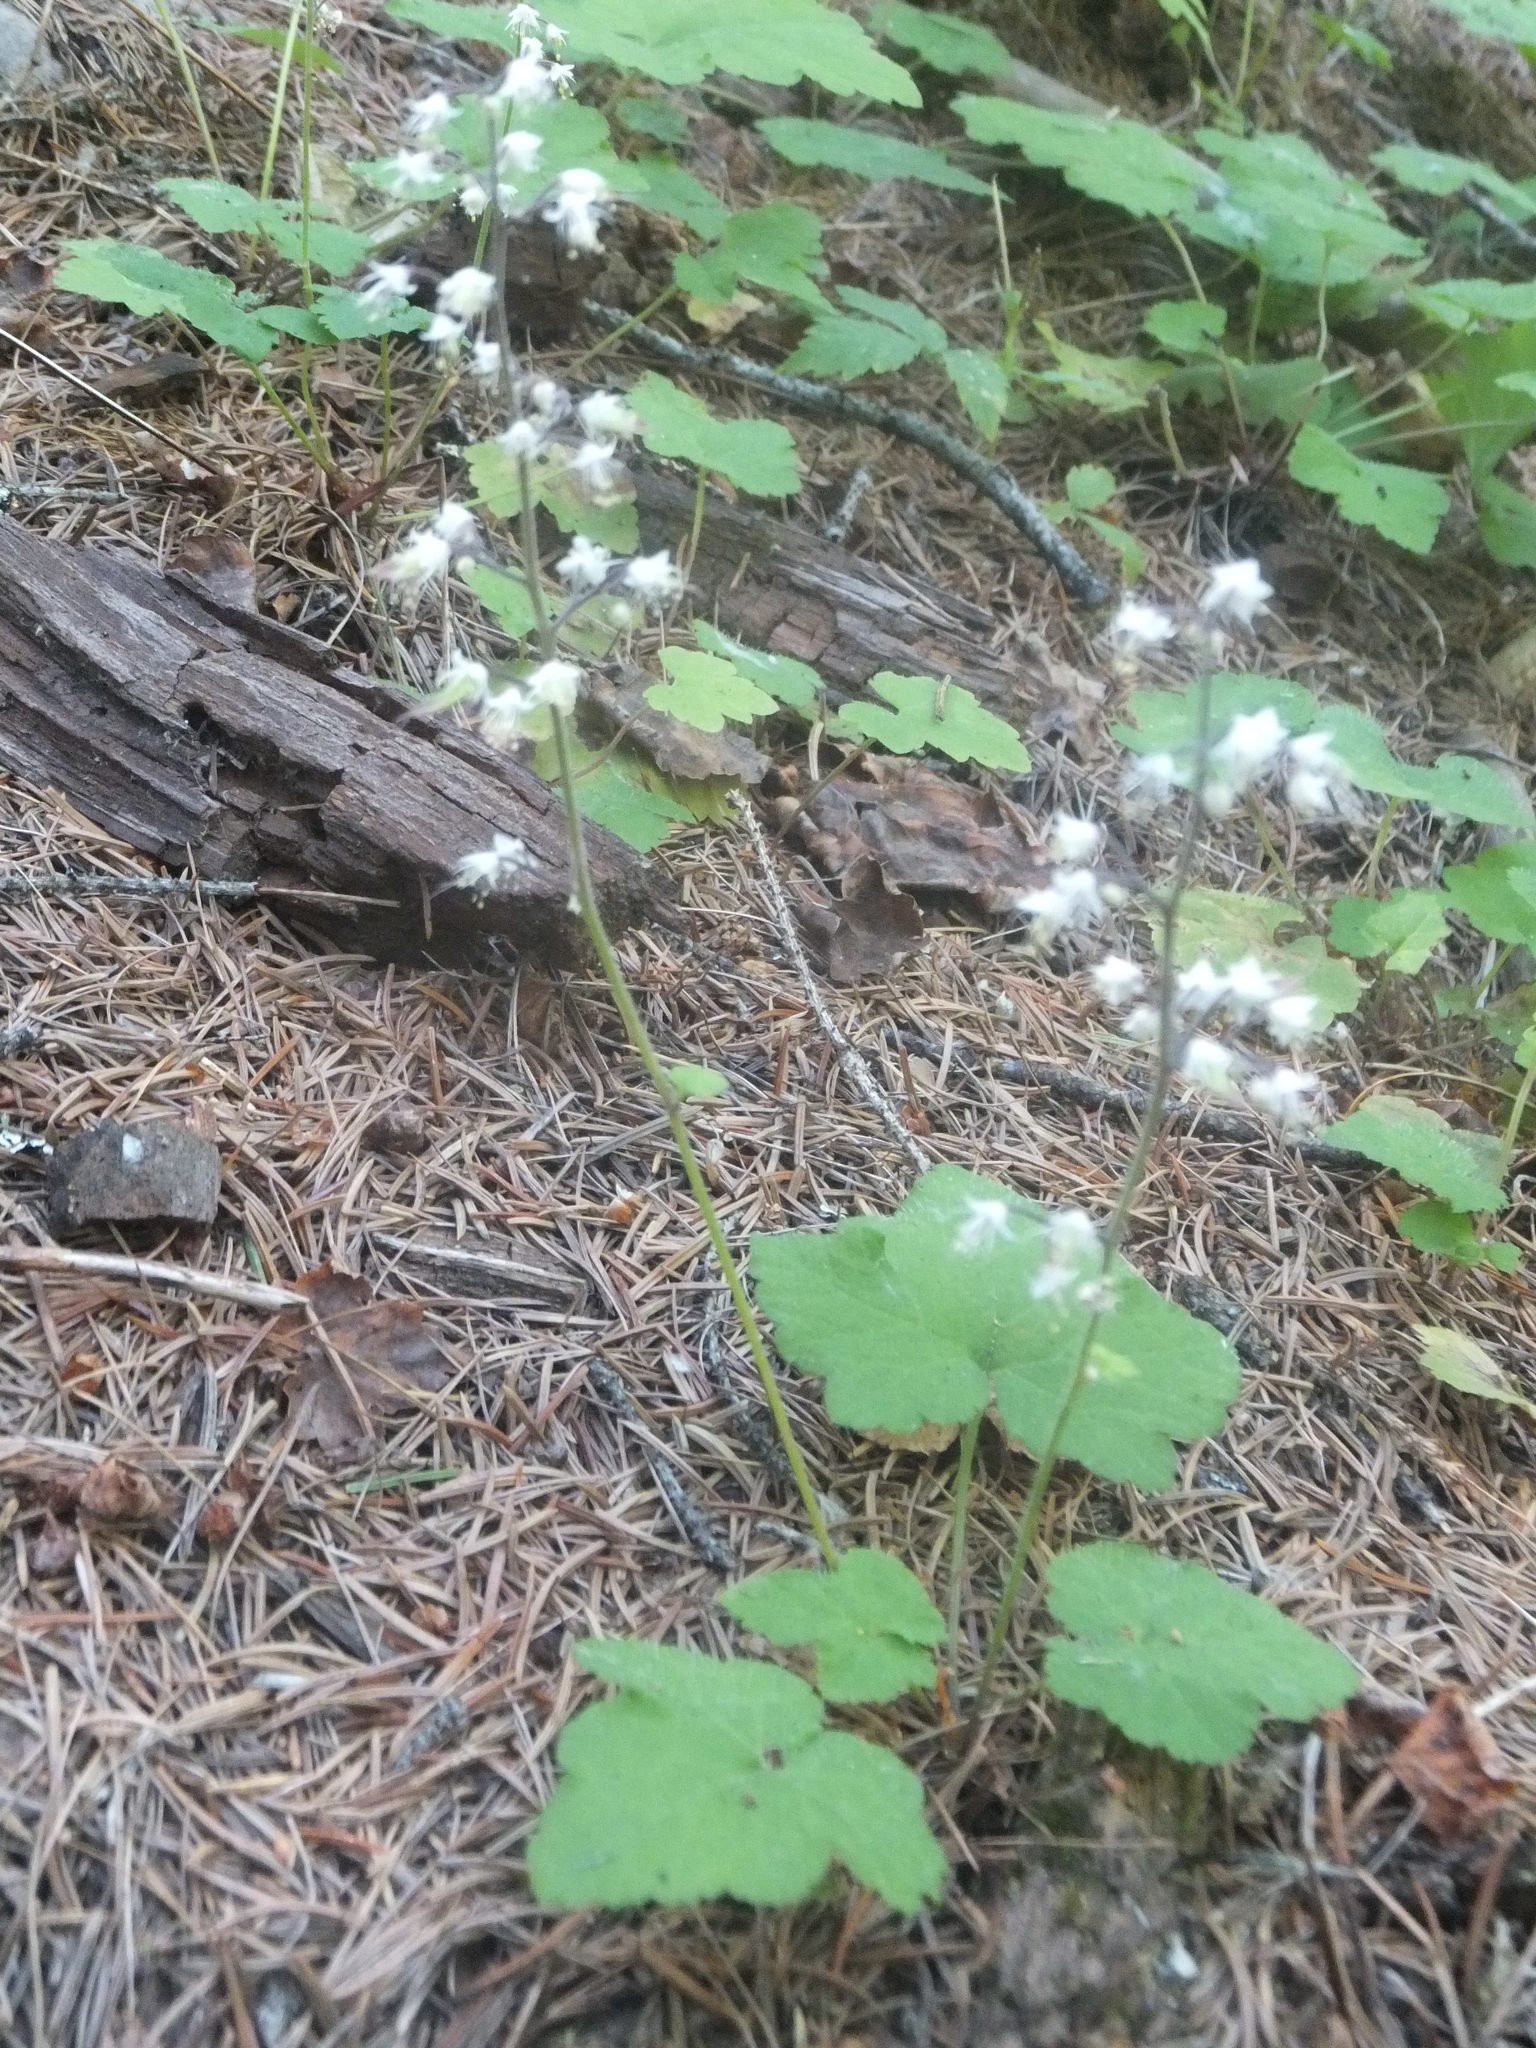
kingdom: Plantae
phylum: Tracheophyta
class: Magnoliopsida
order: Saxifragales
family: Saxifragaceae
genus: Tiarella
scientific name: Tiarella trifoliata
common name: Sugar-scoop
